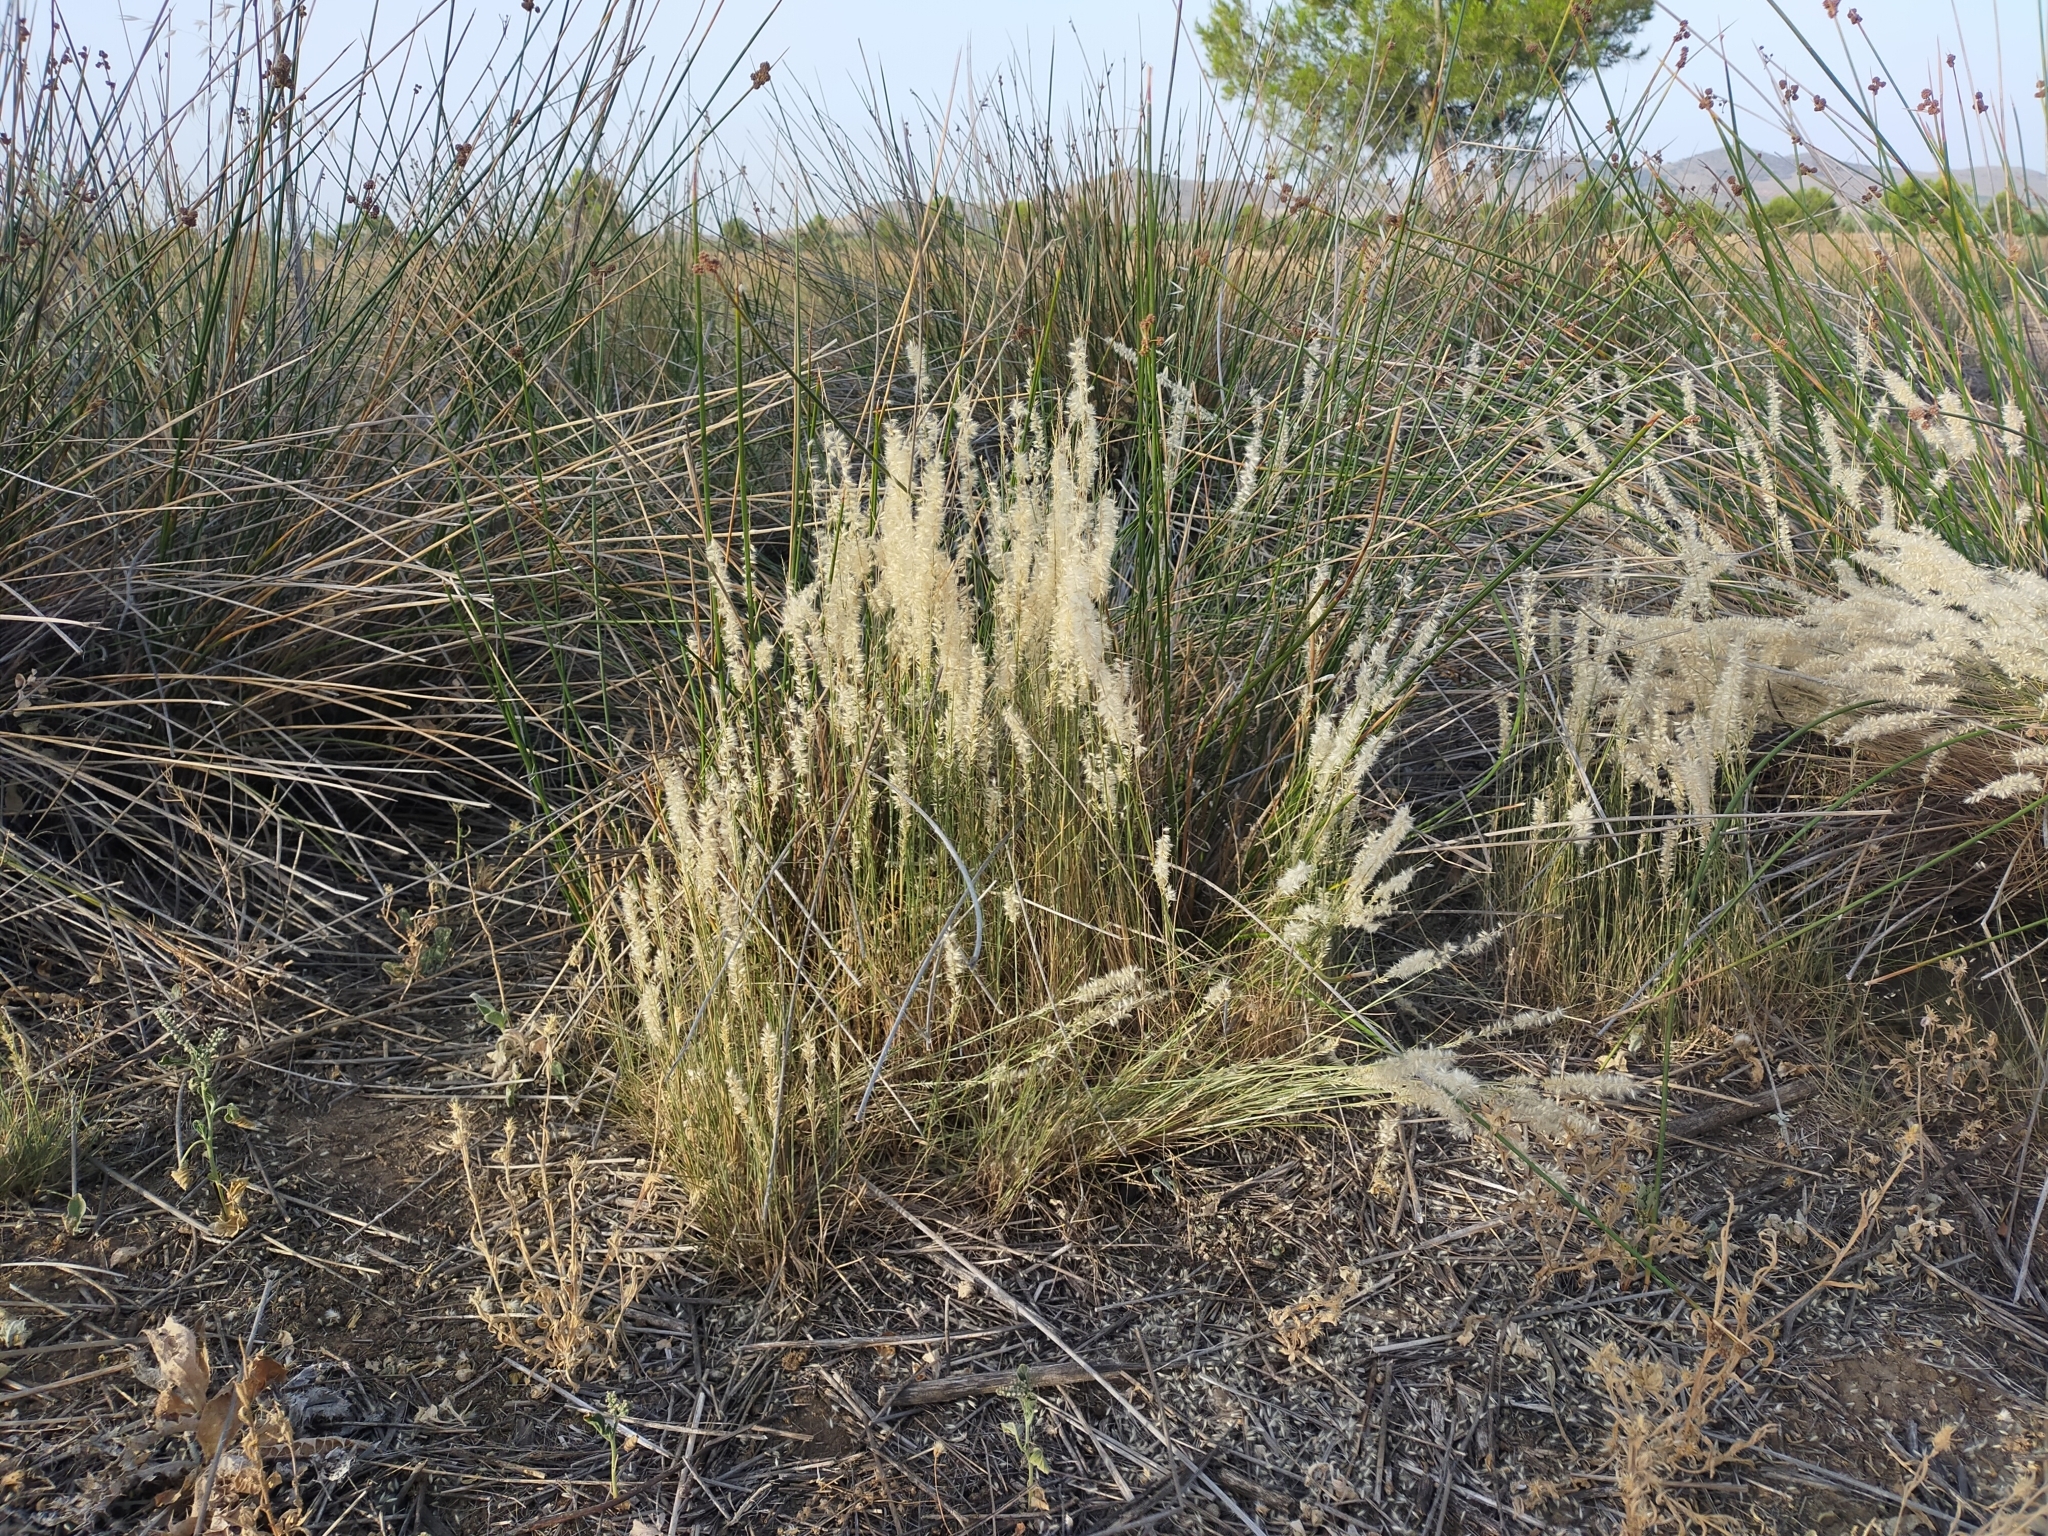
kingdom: Plantae
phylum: Tracheophyta
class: Liliopsida
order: Poales
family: Poaceae
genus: Melica
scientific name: Melica ciliata
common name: Hairy melicgrass
